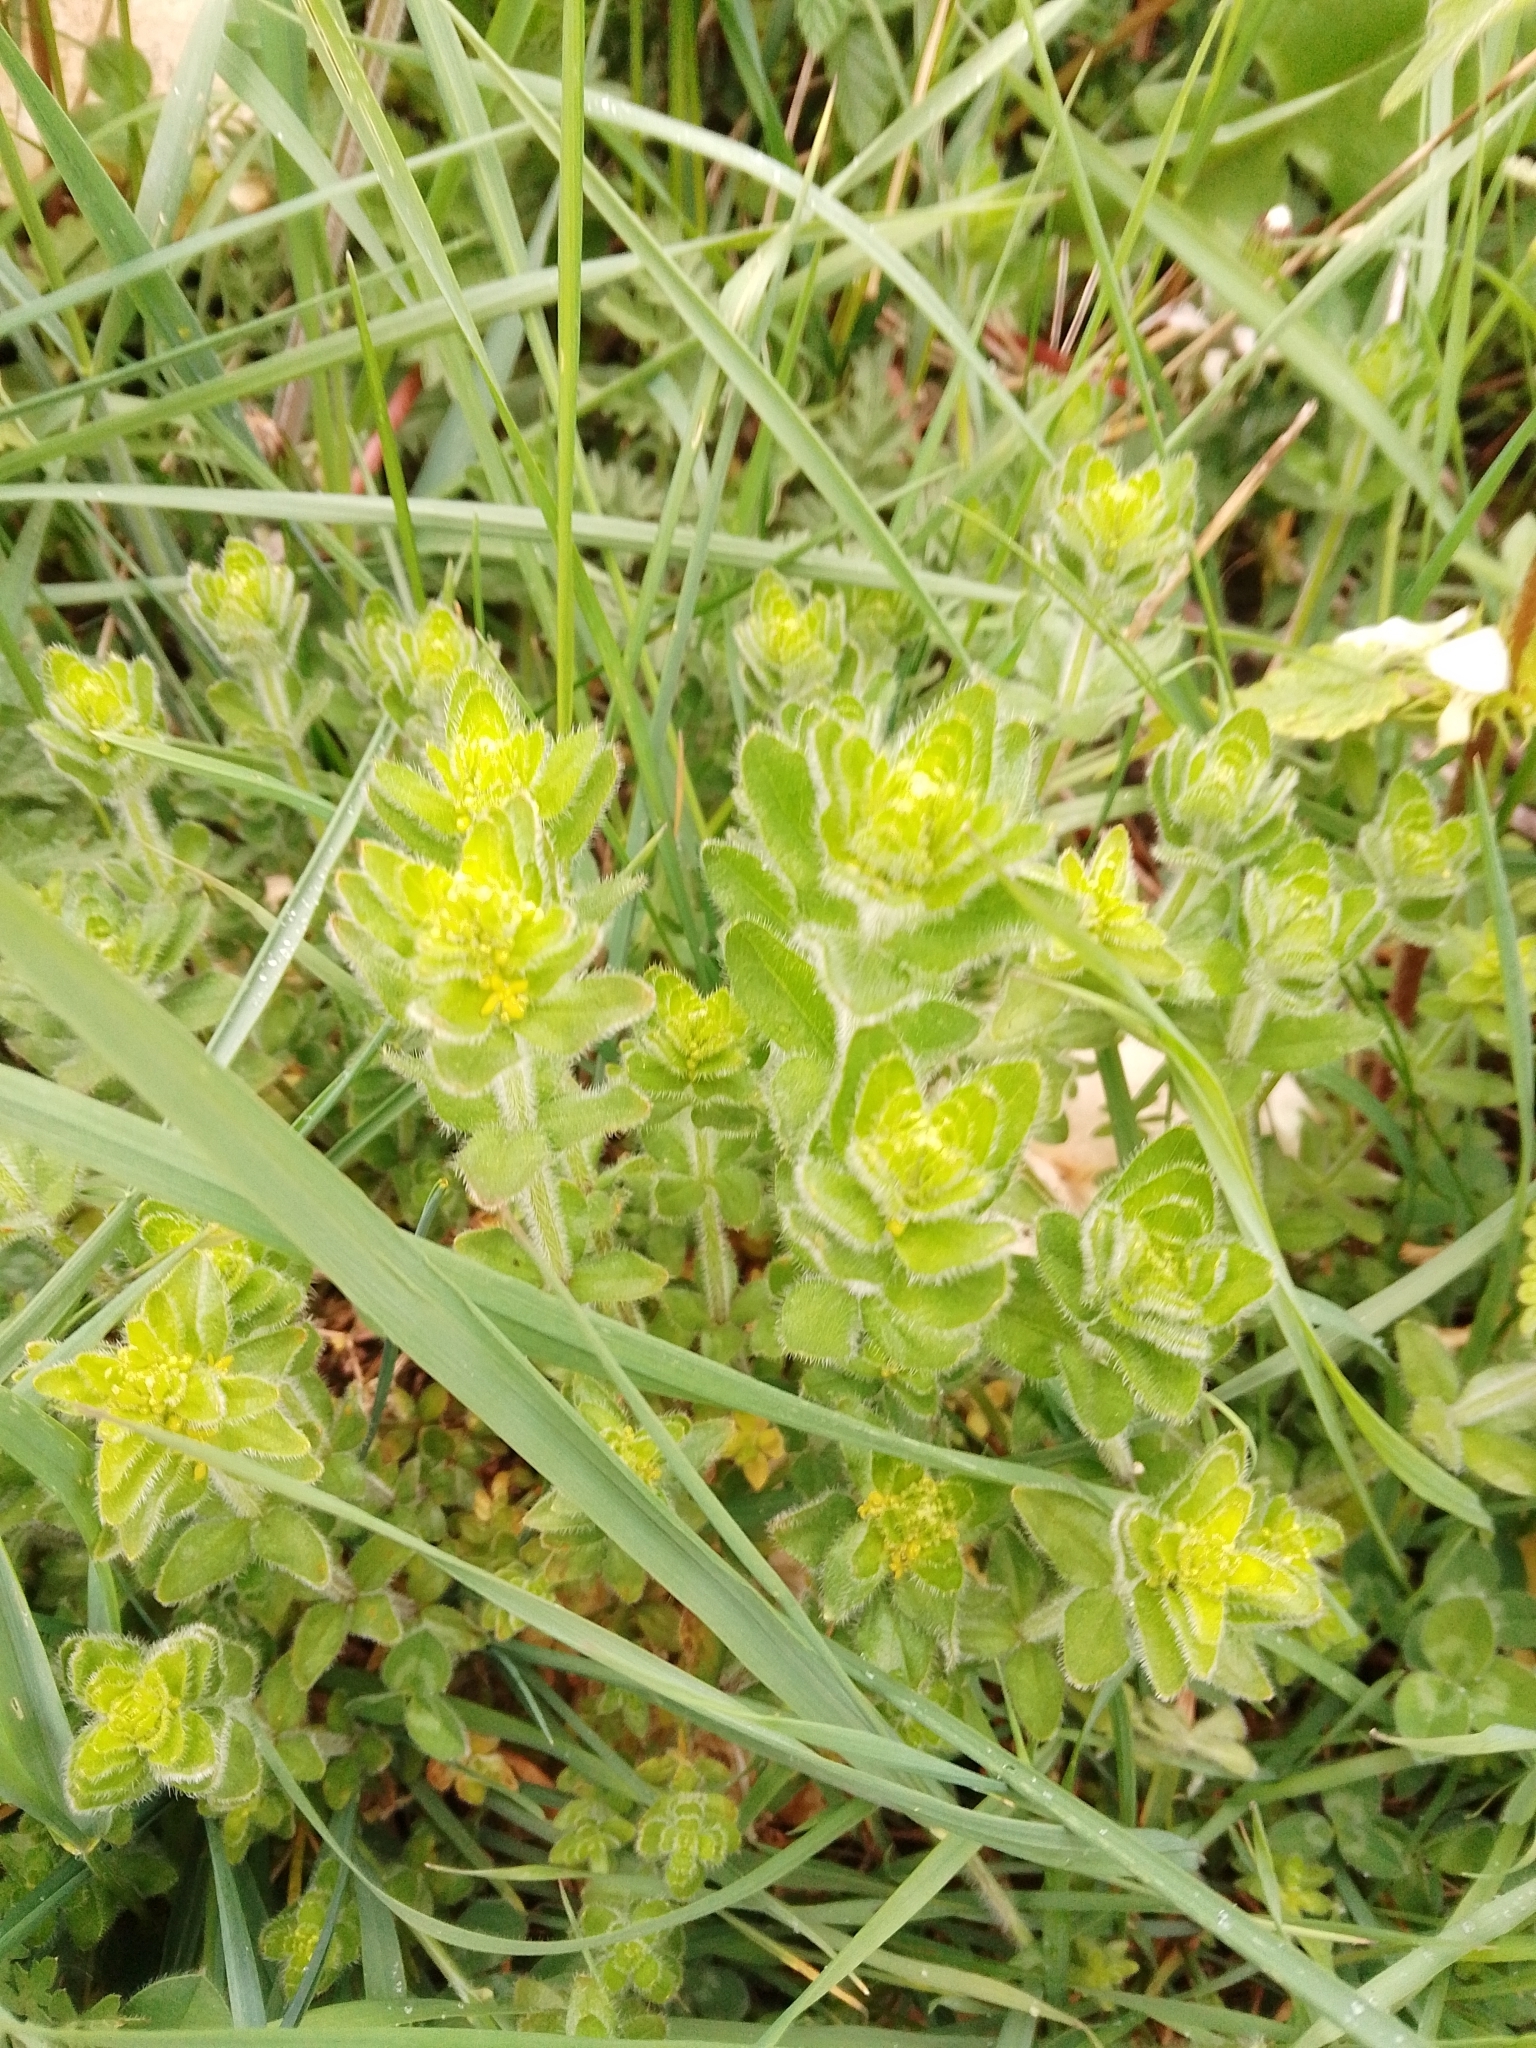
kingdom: Plantae
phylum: Tracheophyta
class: Magnoliopsida
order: Gentianales
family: Rubiaceae
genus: Cruciata
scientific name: Cruciata laevipes
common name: Crosswort
